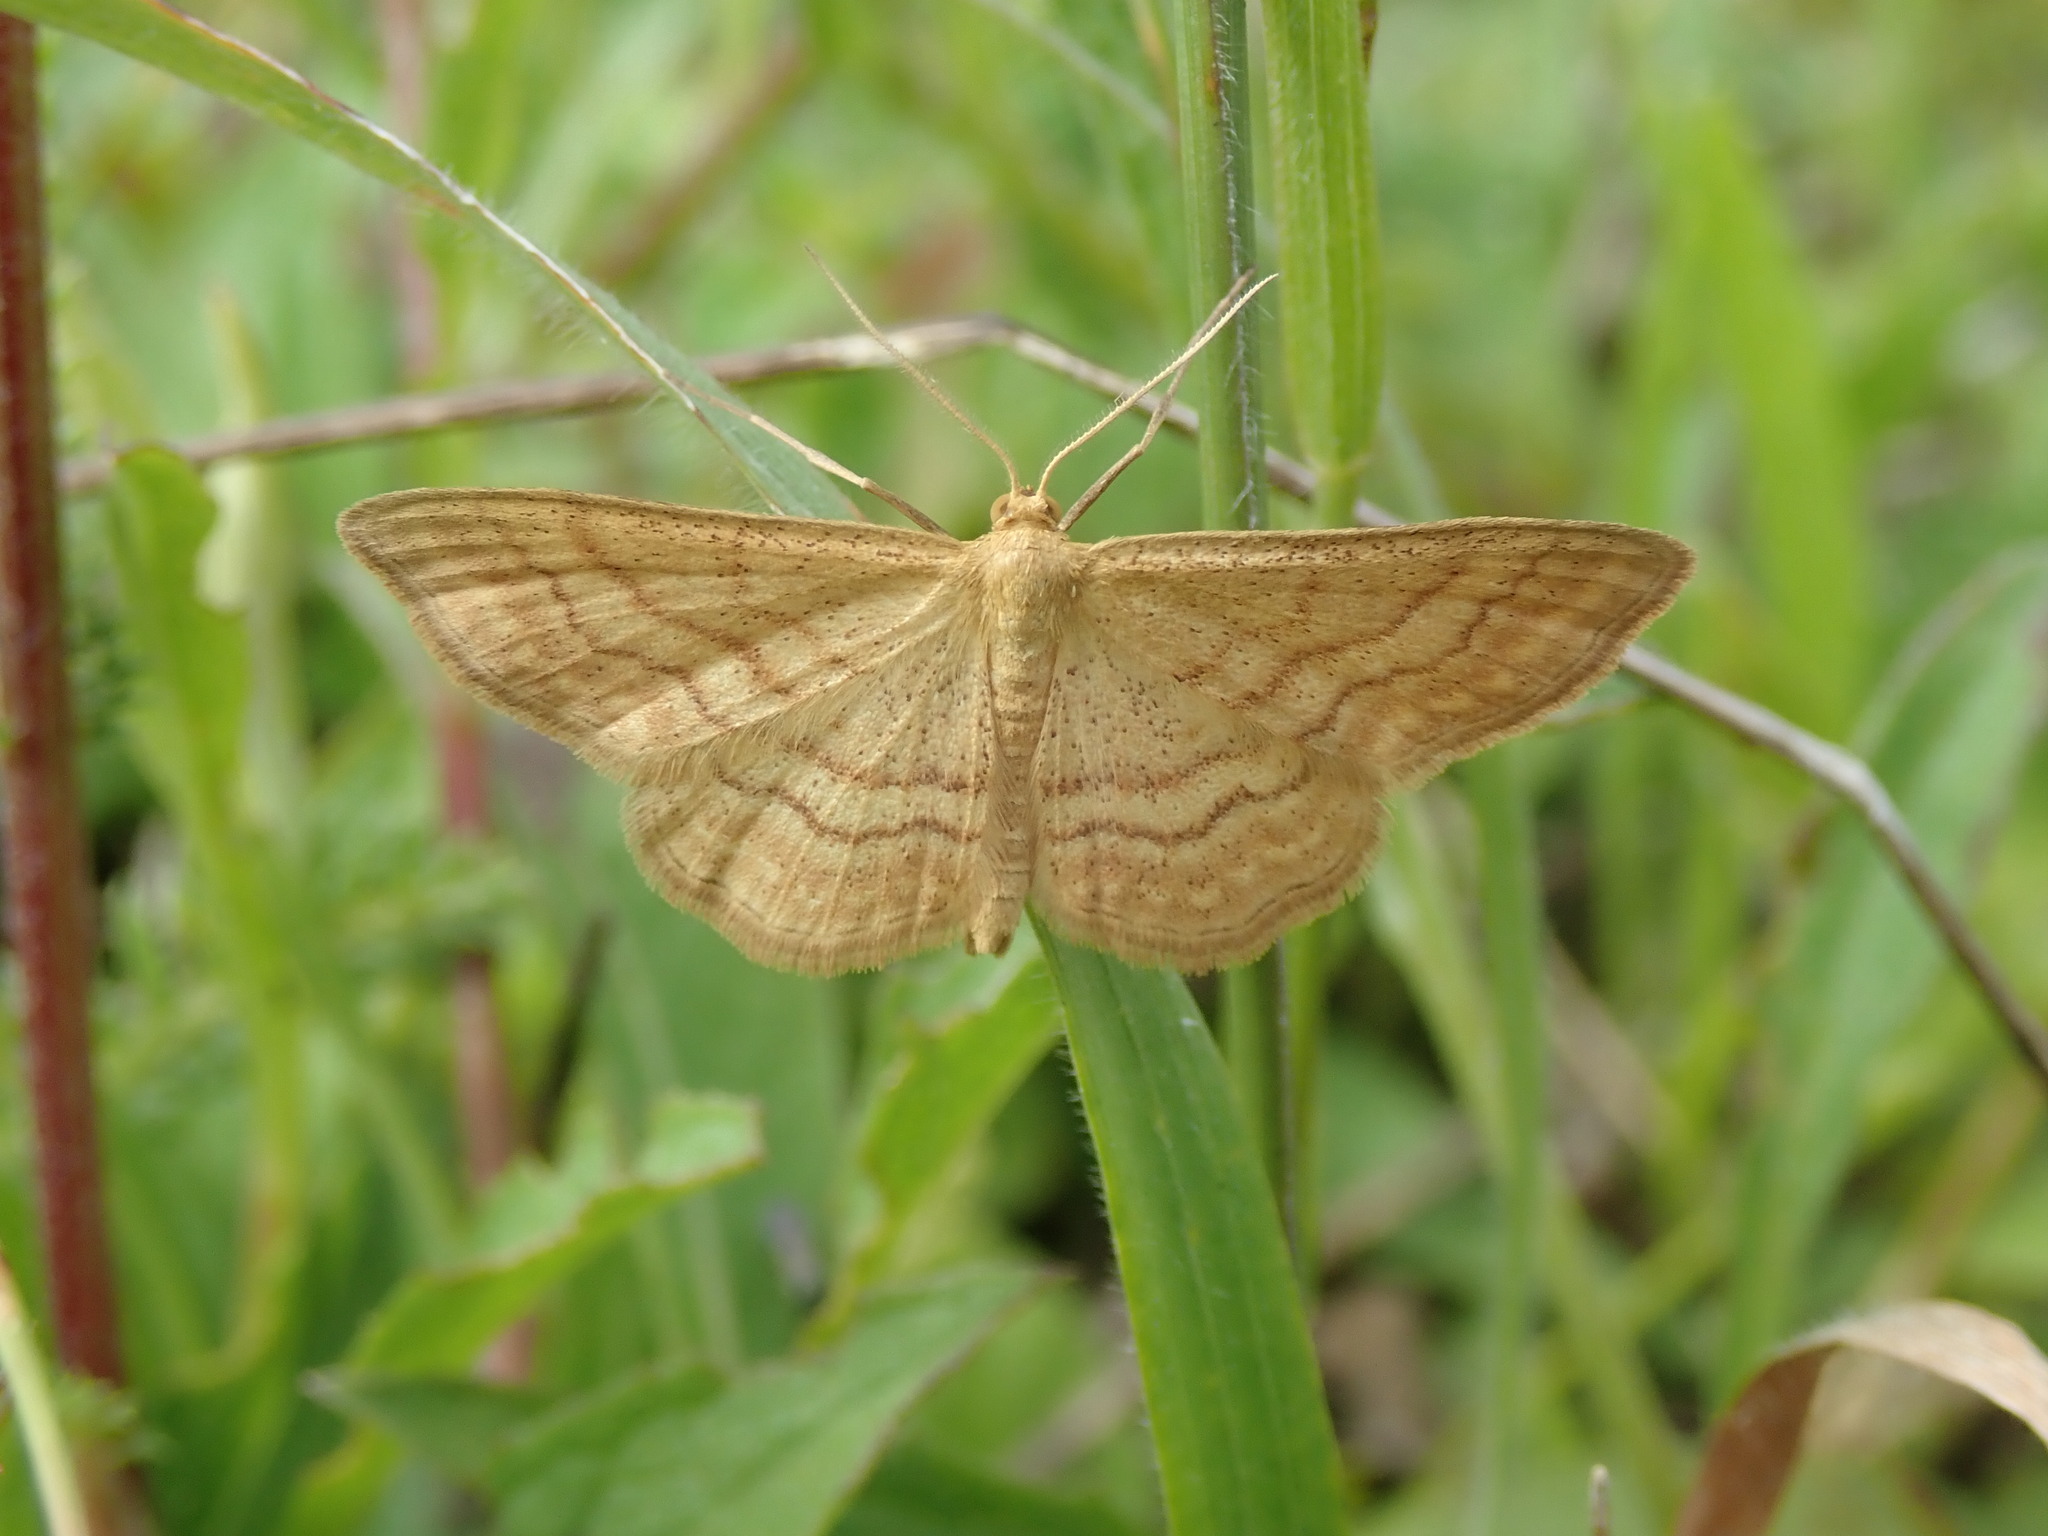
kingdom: Animalia
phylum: Arthropoda
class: Insecta
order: Lepidoptera
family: Geometridae
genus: Idaea
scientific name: Idaea ochrata
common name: Bright wave
